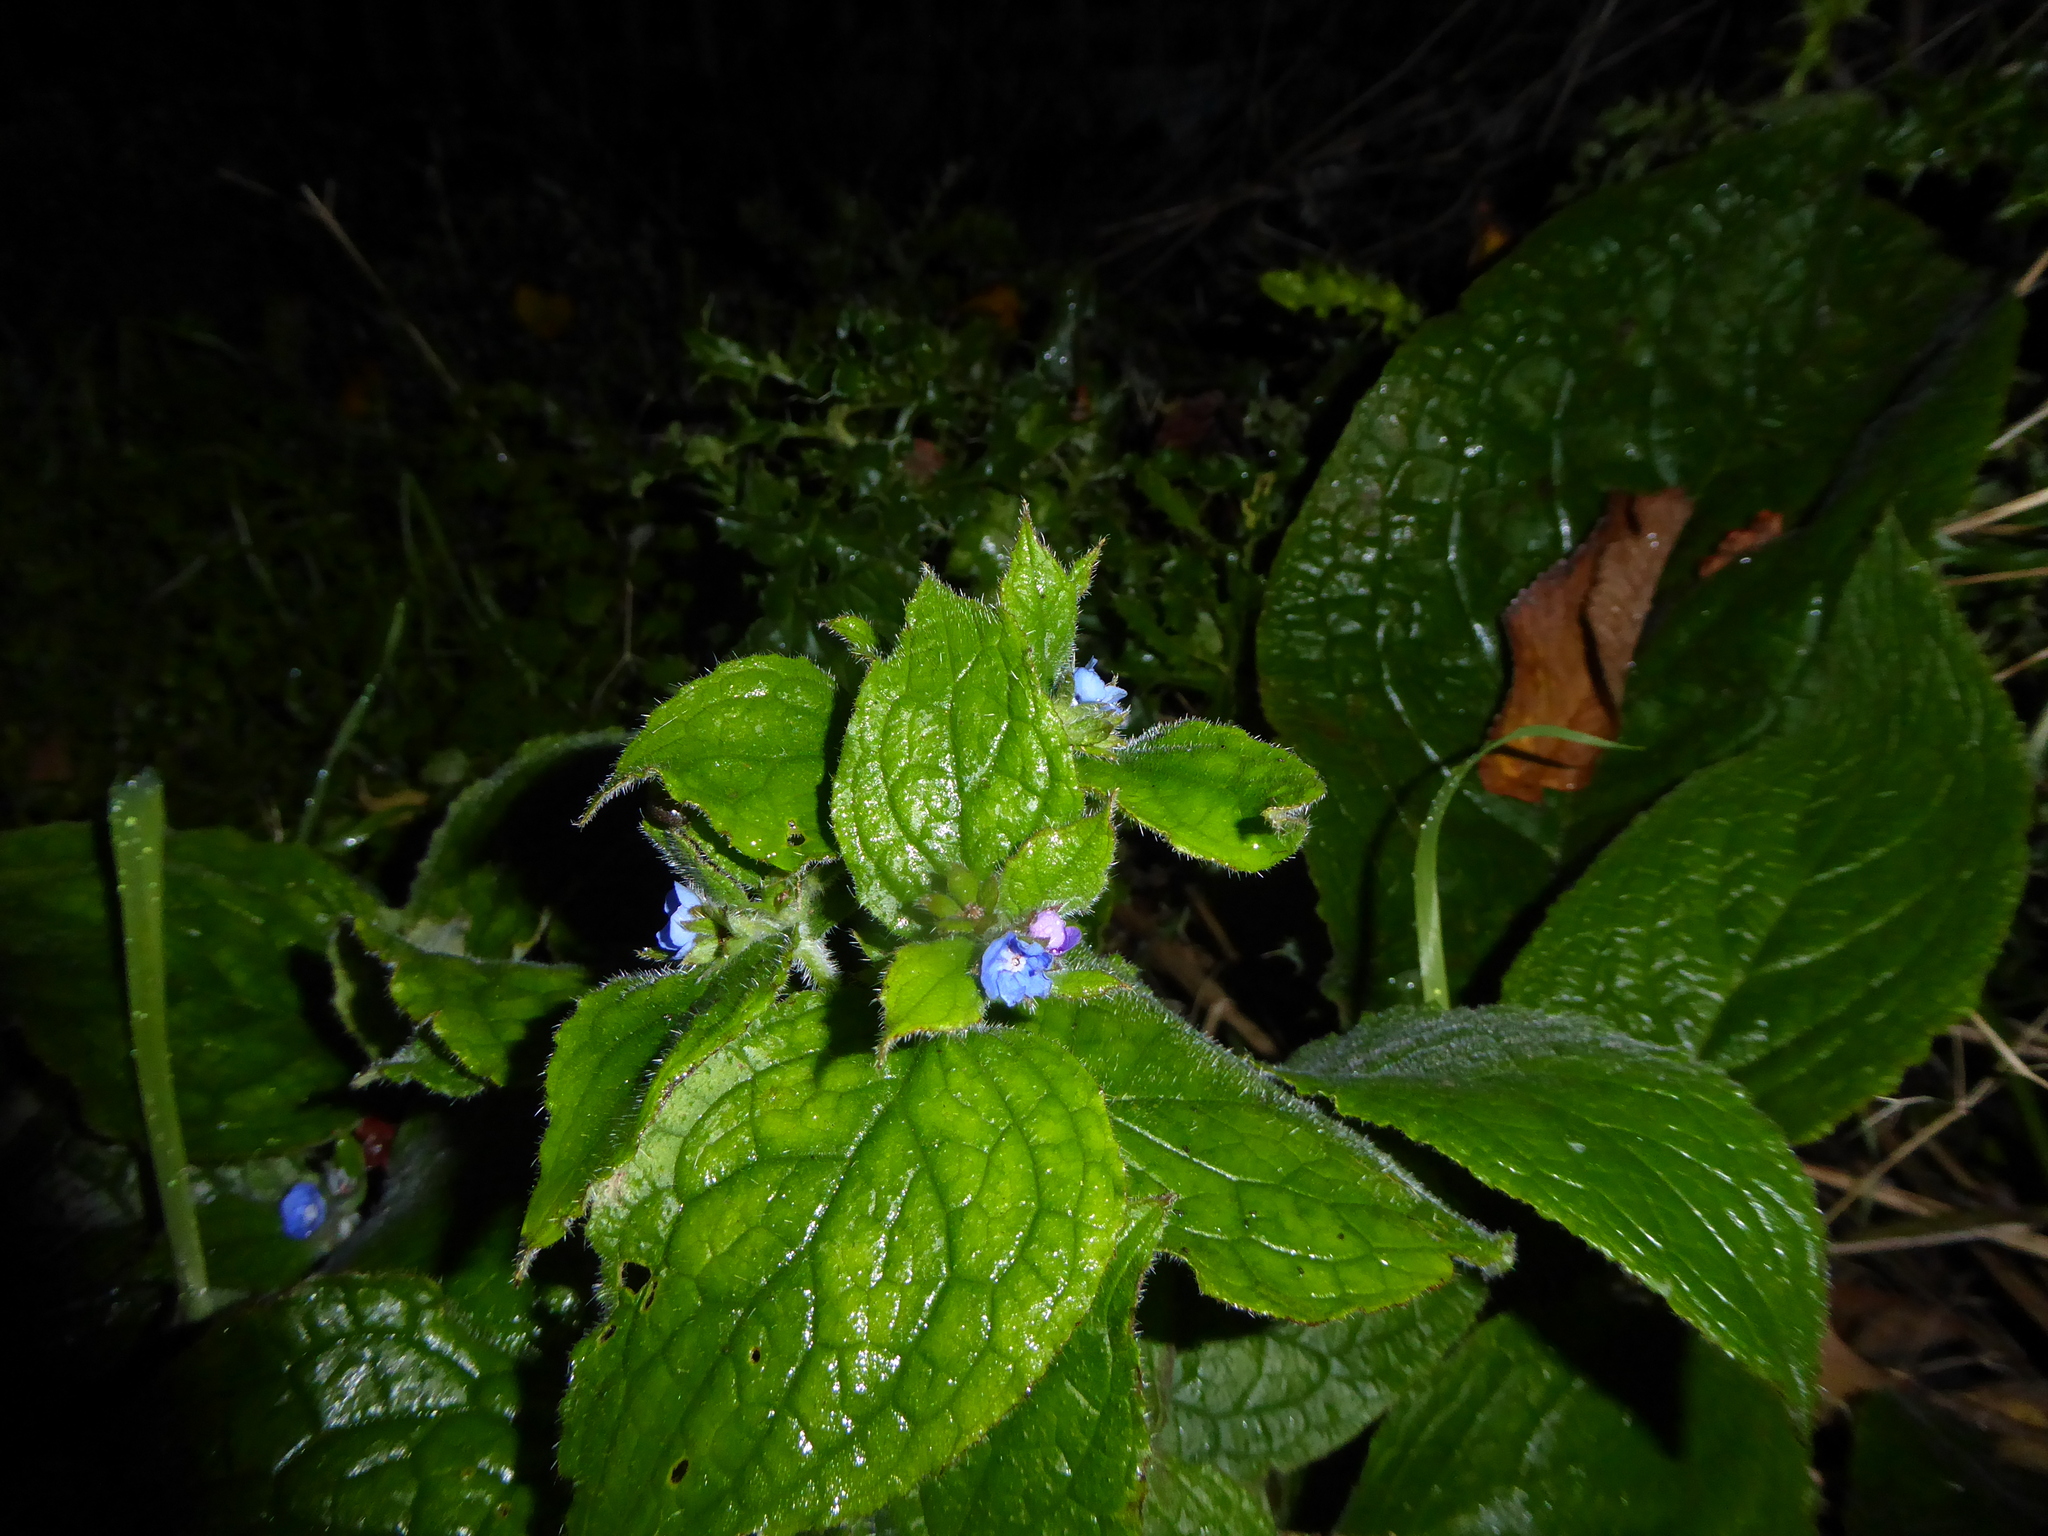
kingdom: Plantae
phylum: Tracheophyta
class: Magnoliopsida
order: Boraginales
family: Boraginaceae
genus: Pentaglottis
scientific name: Pentaglottis sempervirens
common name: Green alkanet
